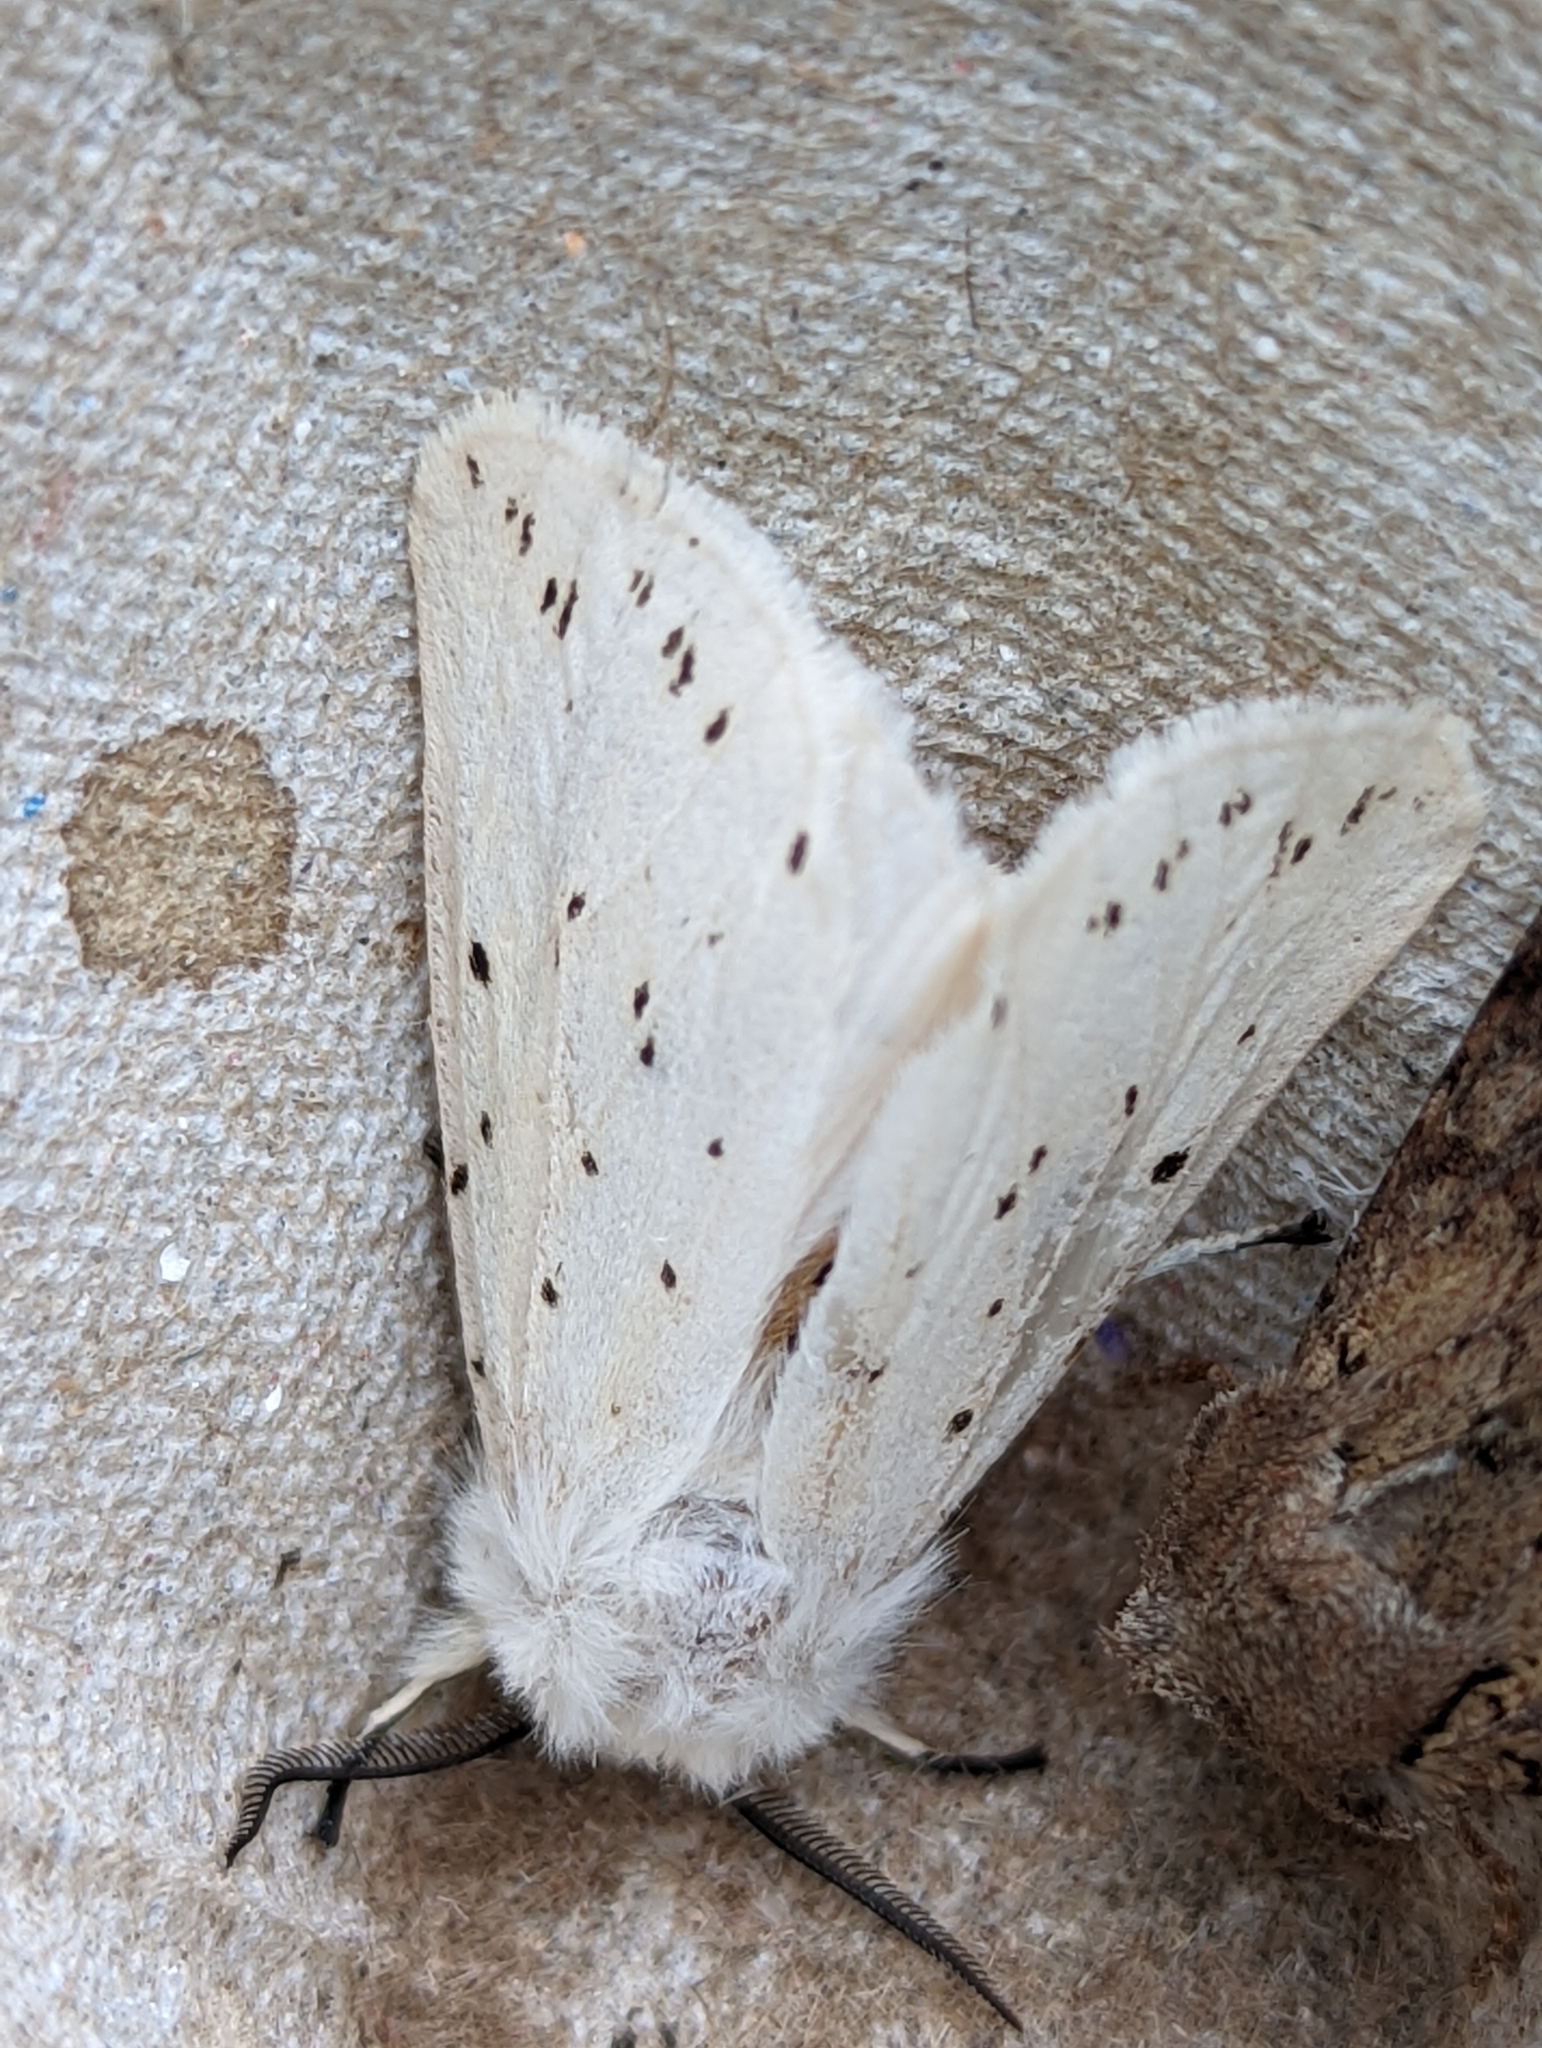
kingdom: Animalia
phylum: Arthropoda
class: Insecta
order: Lepidoptera
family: Erebidae
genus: Spilosoma
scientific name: Spilosoma lubricipeda
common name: White ermine
